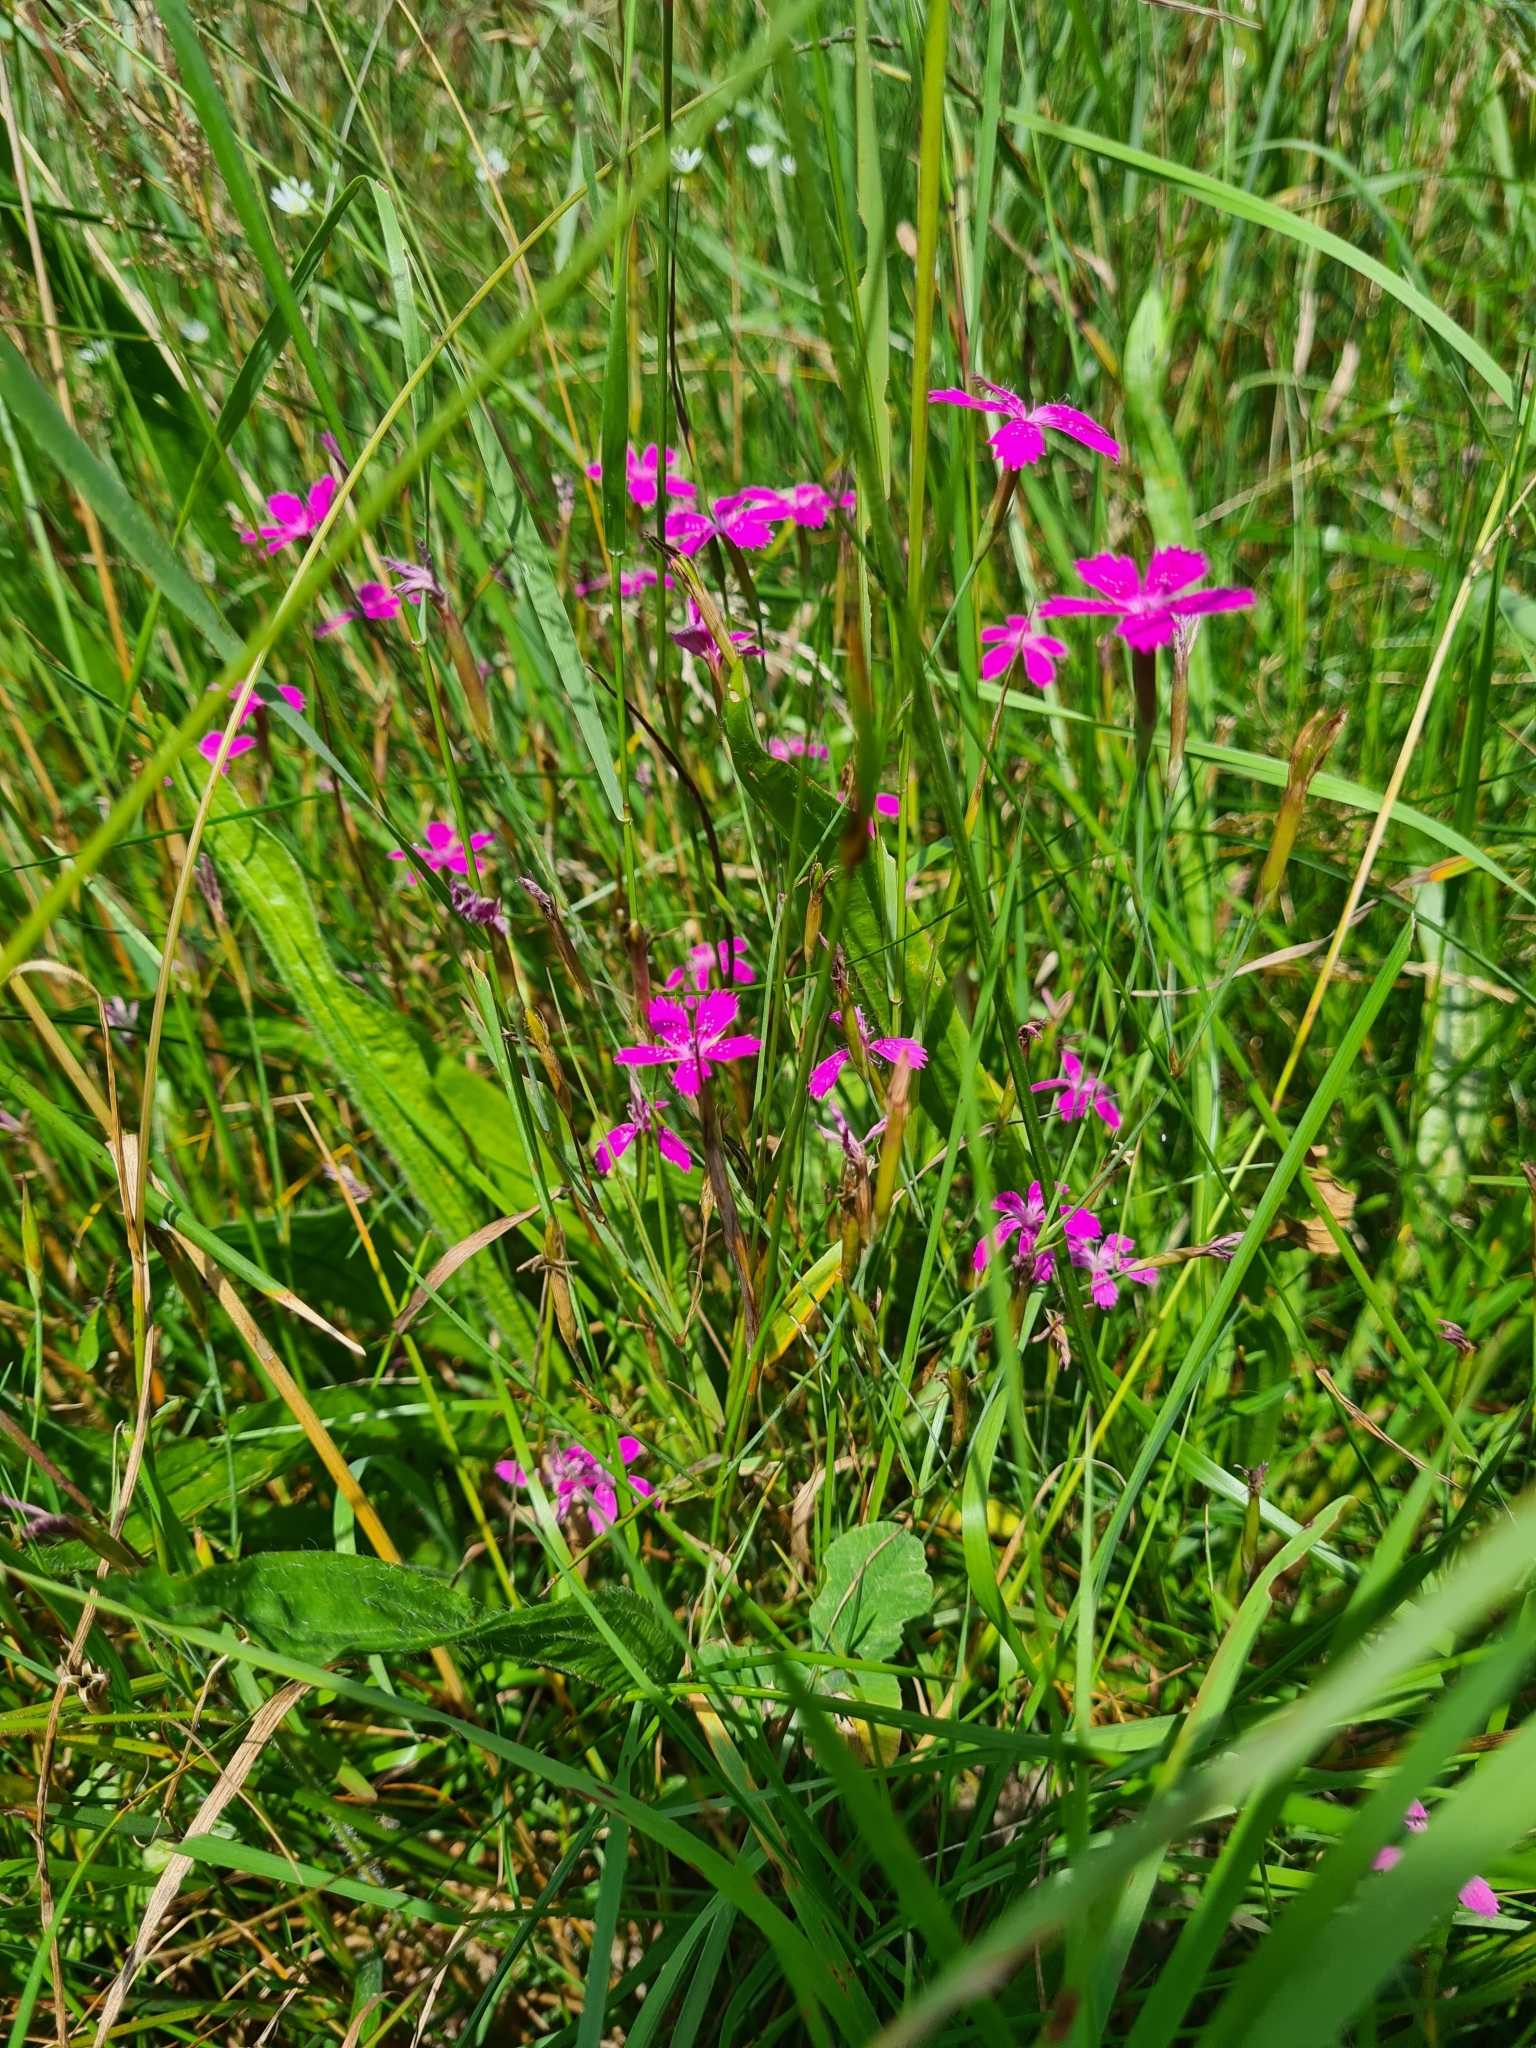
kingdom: Plantae
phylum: Tracheophyta
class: Magnoliopsida
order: Caryophyllales
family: Caryophyllaceae
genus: Dianthus
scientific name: Dianthus deltoides
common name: Maiden pink
